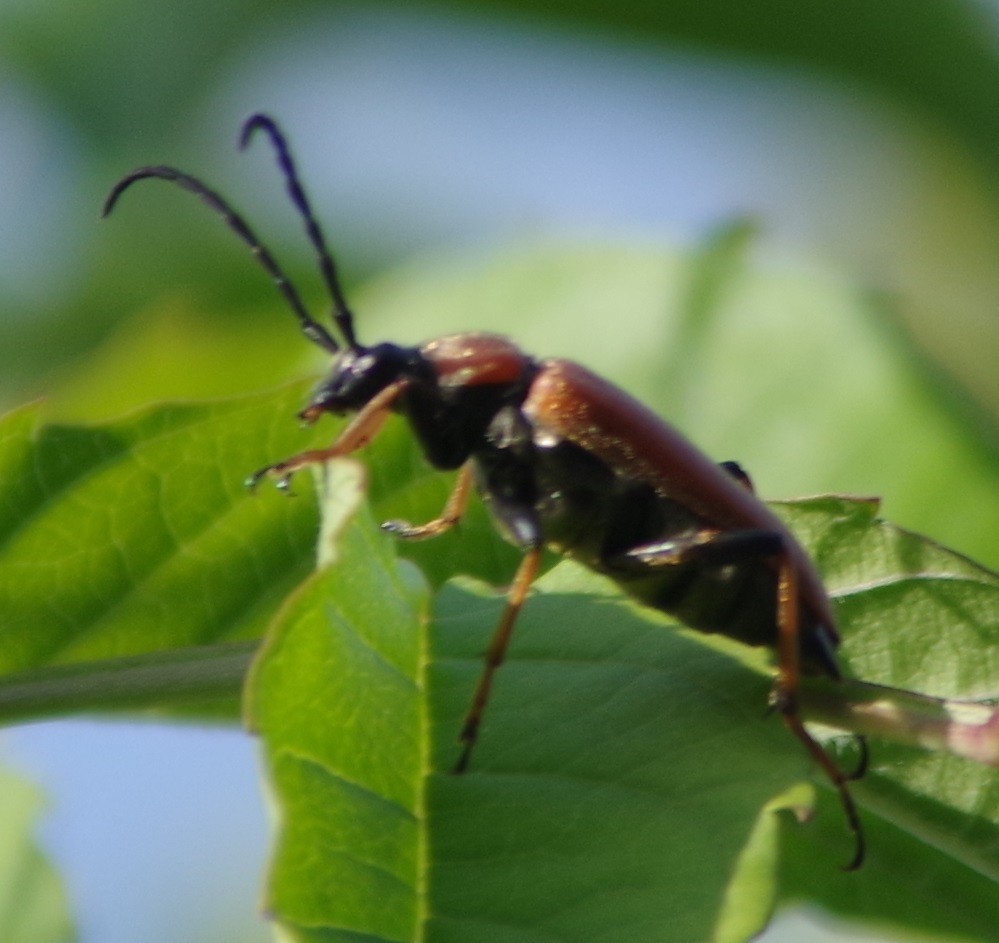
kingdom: Animalia
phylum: Arthropoda
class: Insecta
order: Coleoptera
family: Cerambycidae
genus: Stictoleptura
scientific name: Stictoleptura rubra
